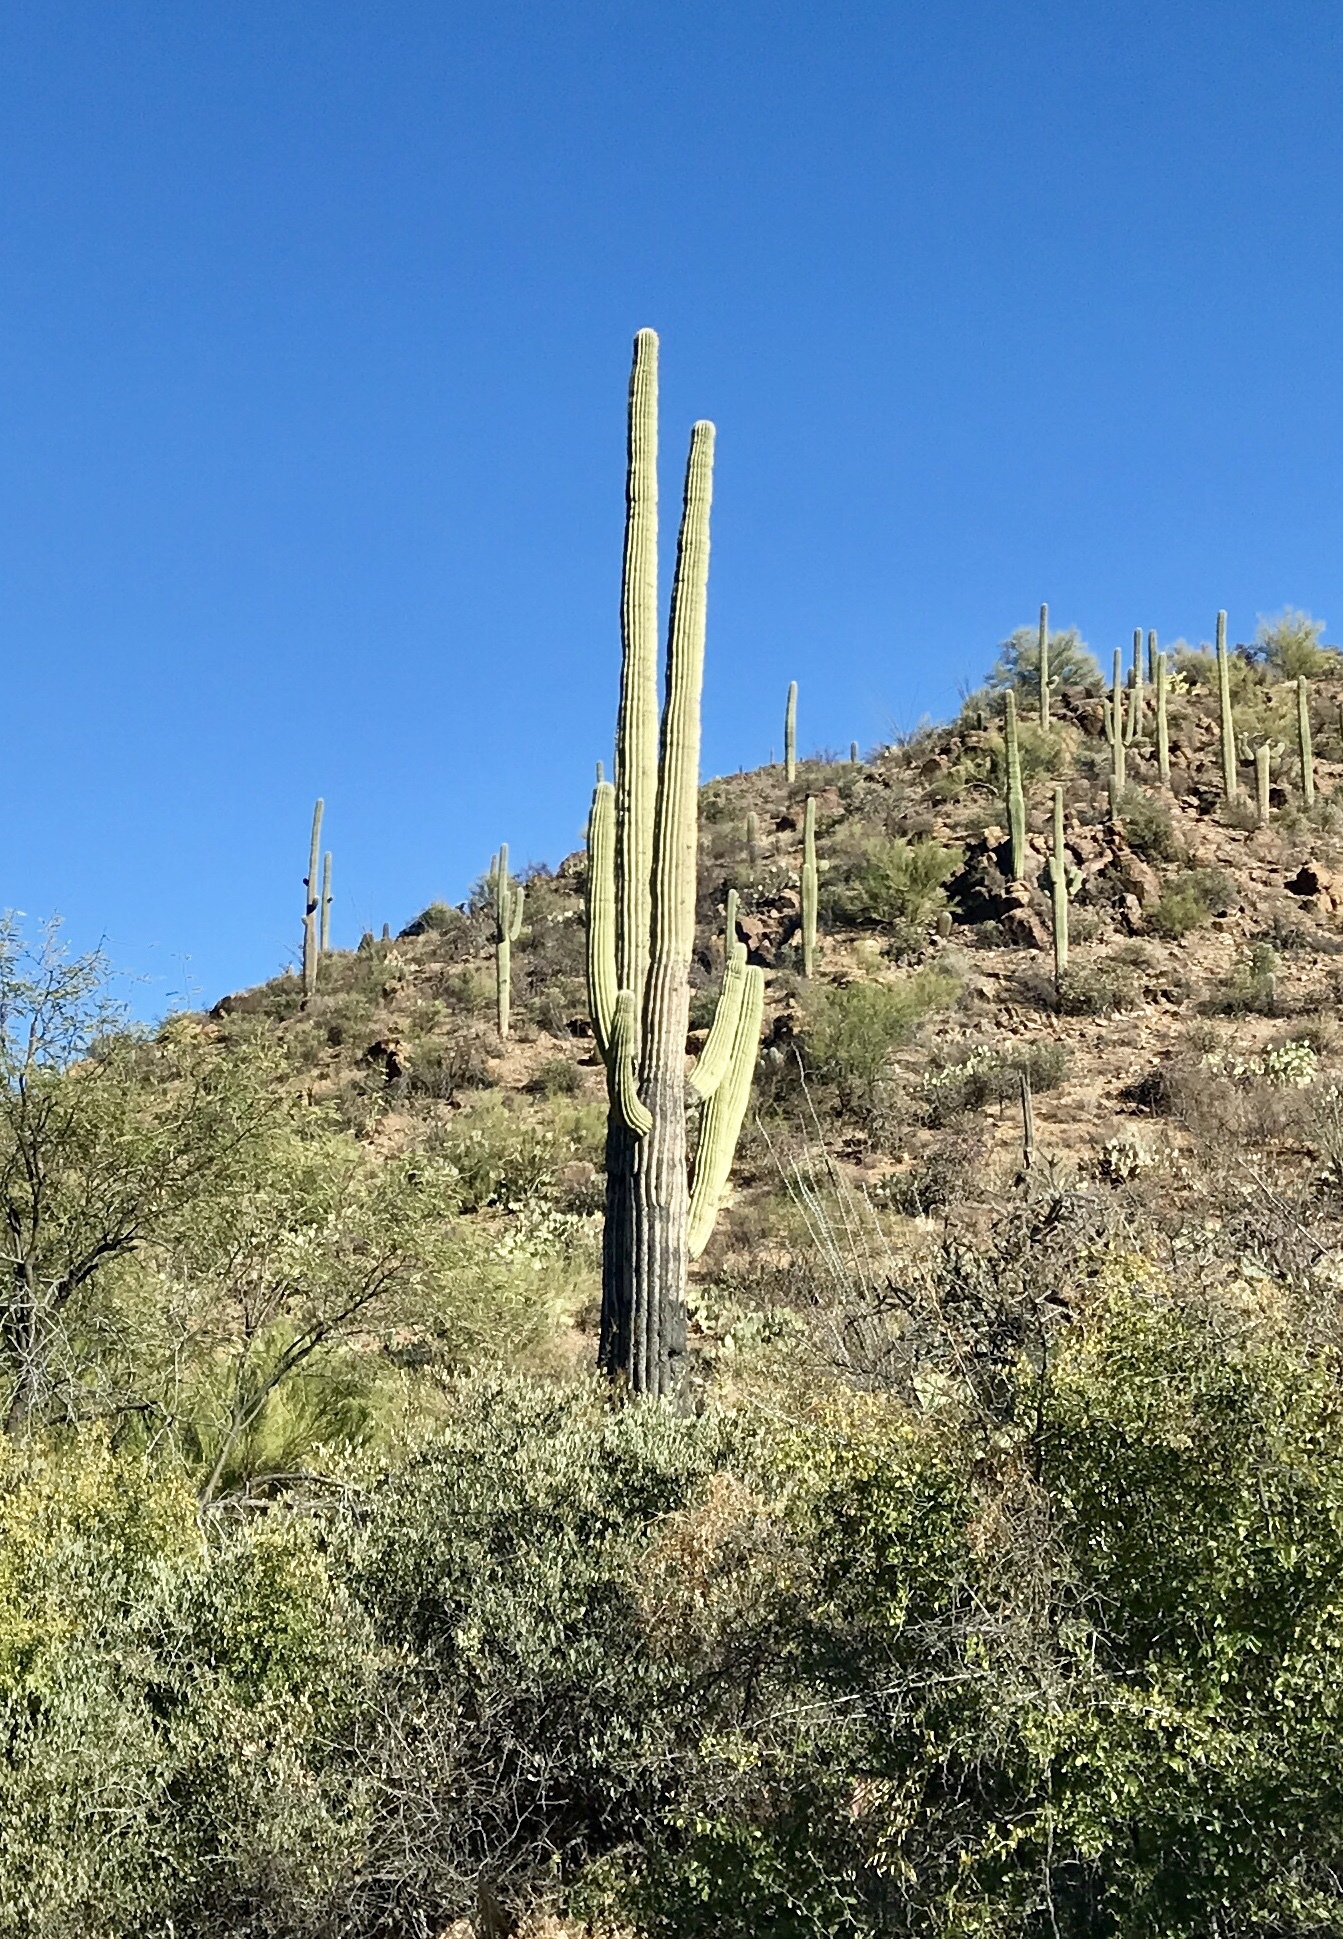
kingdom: Plantae
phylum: Tracheophyta
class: Magnoliopsida
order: Caryophyllales
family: Cactaceae
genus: Carnegiea
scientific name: Carnegiea gigantea
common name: Saguaro
